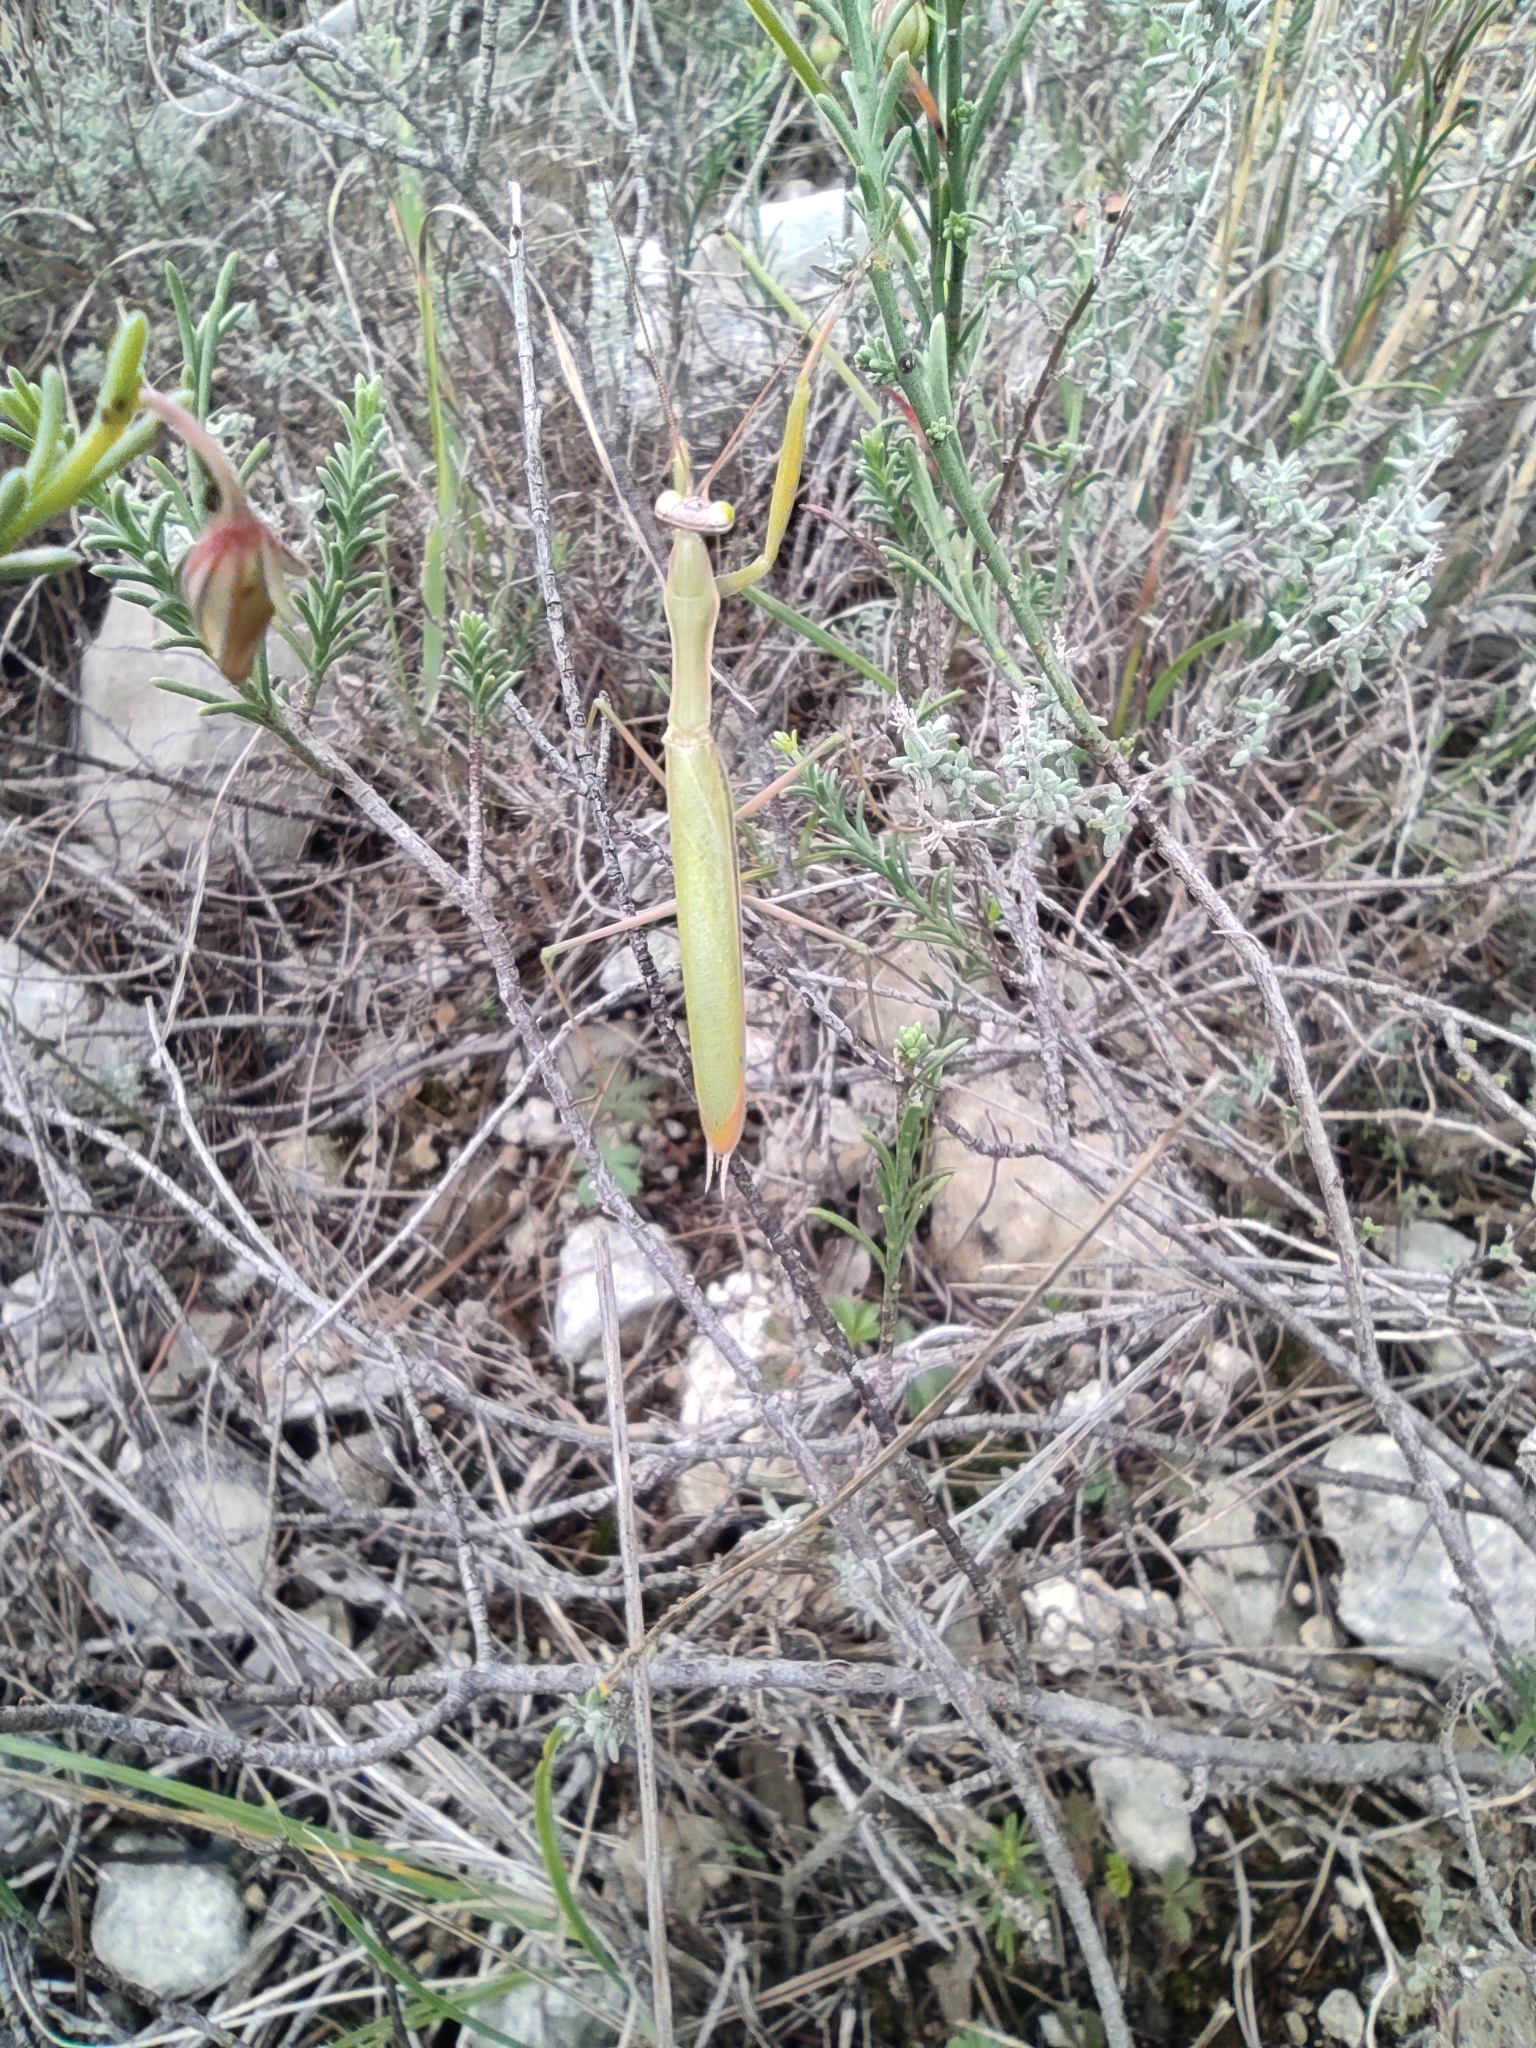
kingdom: Animalia
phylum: Arthropoda
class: Insecta
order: Mantodea
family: Mantidae
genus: Mantis
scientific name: Mantis religiosa
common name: Praying mantis
